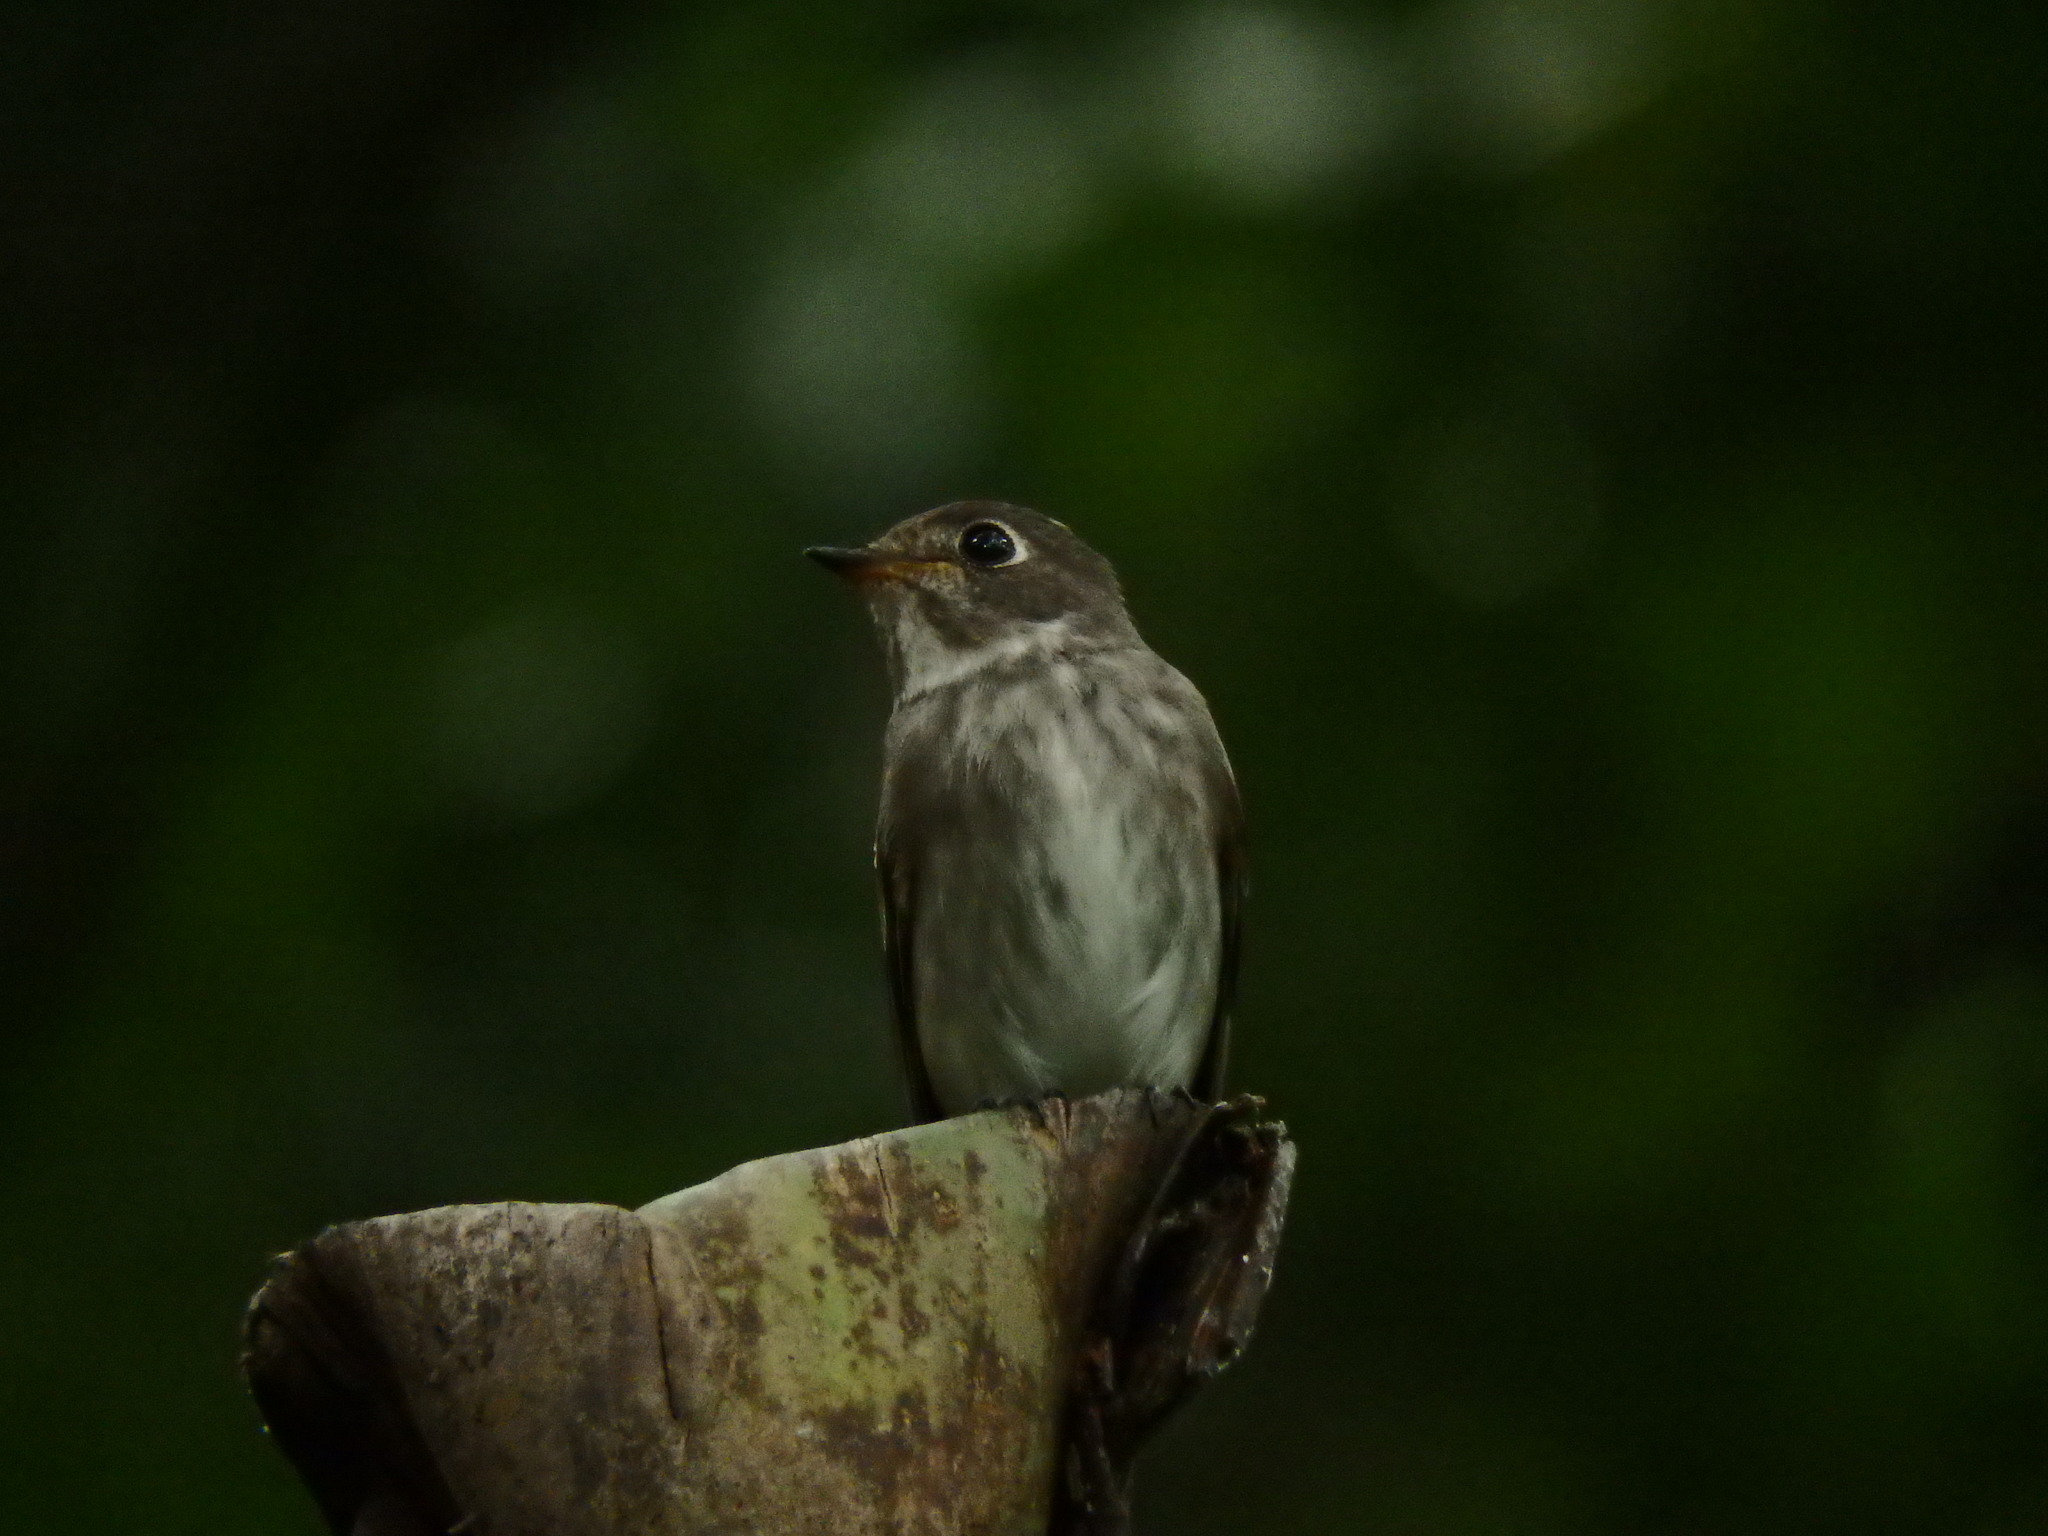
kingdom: Animalia
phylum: Chordata
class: Aves
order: Passeriformes
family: Muscicapidae
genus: Muscicapa
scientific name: Muscicapa sibirica
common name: Dark-sided flycatcher
